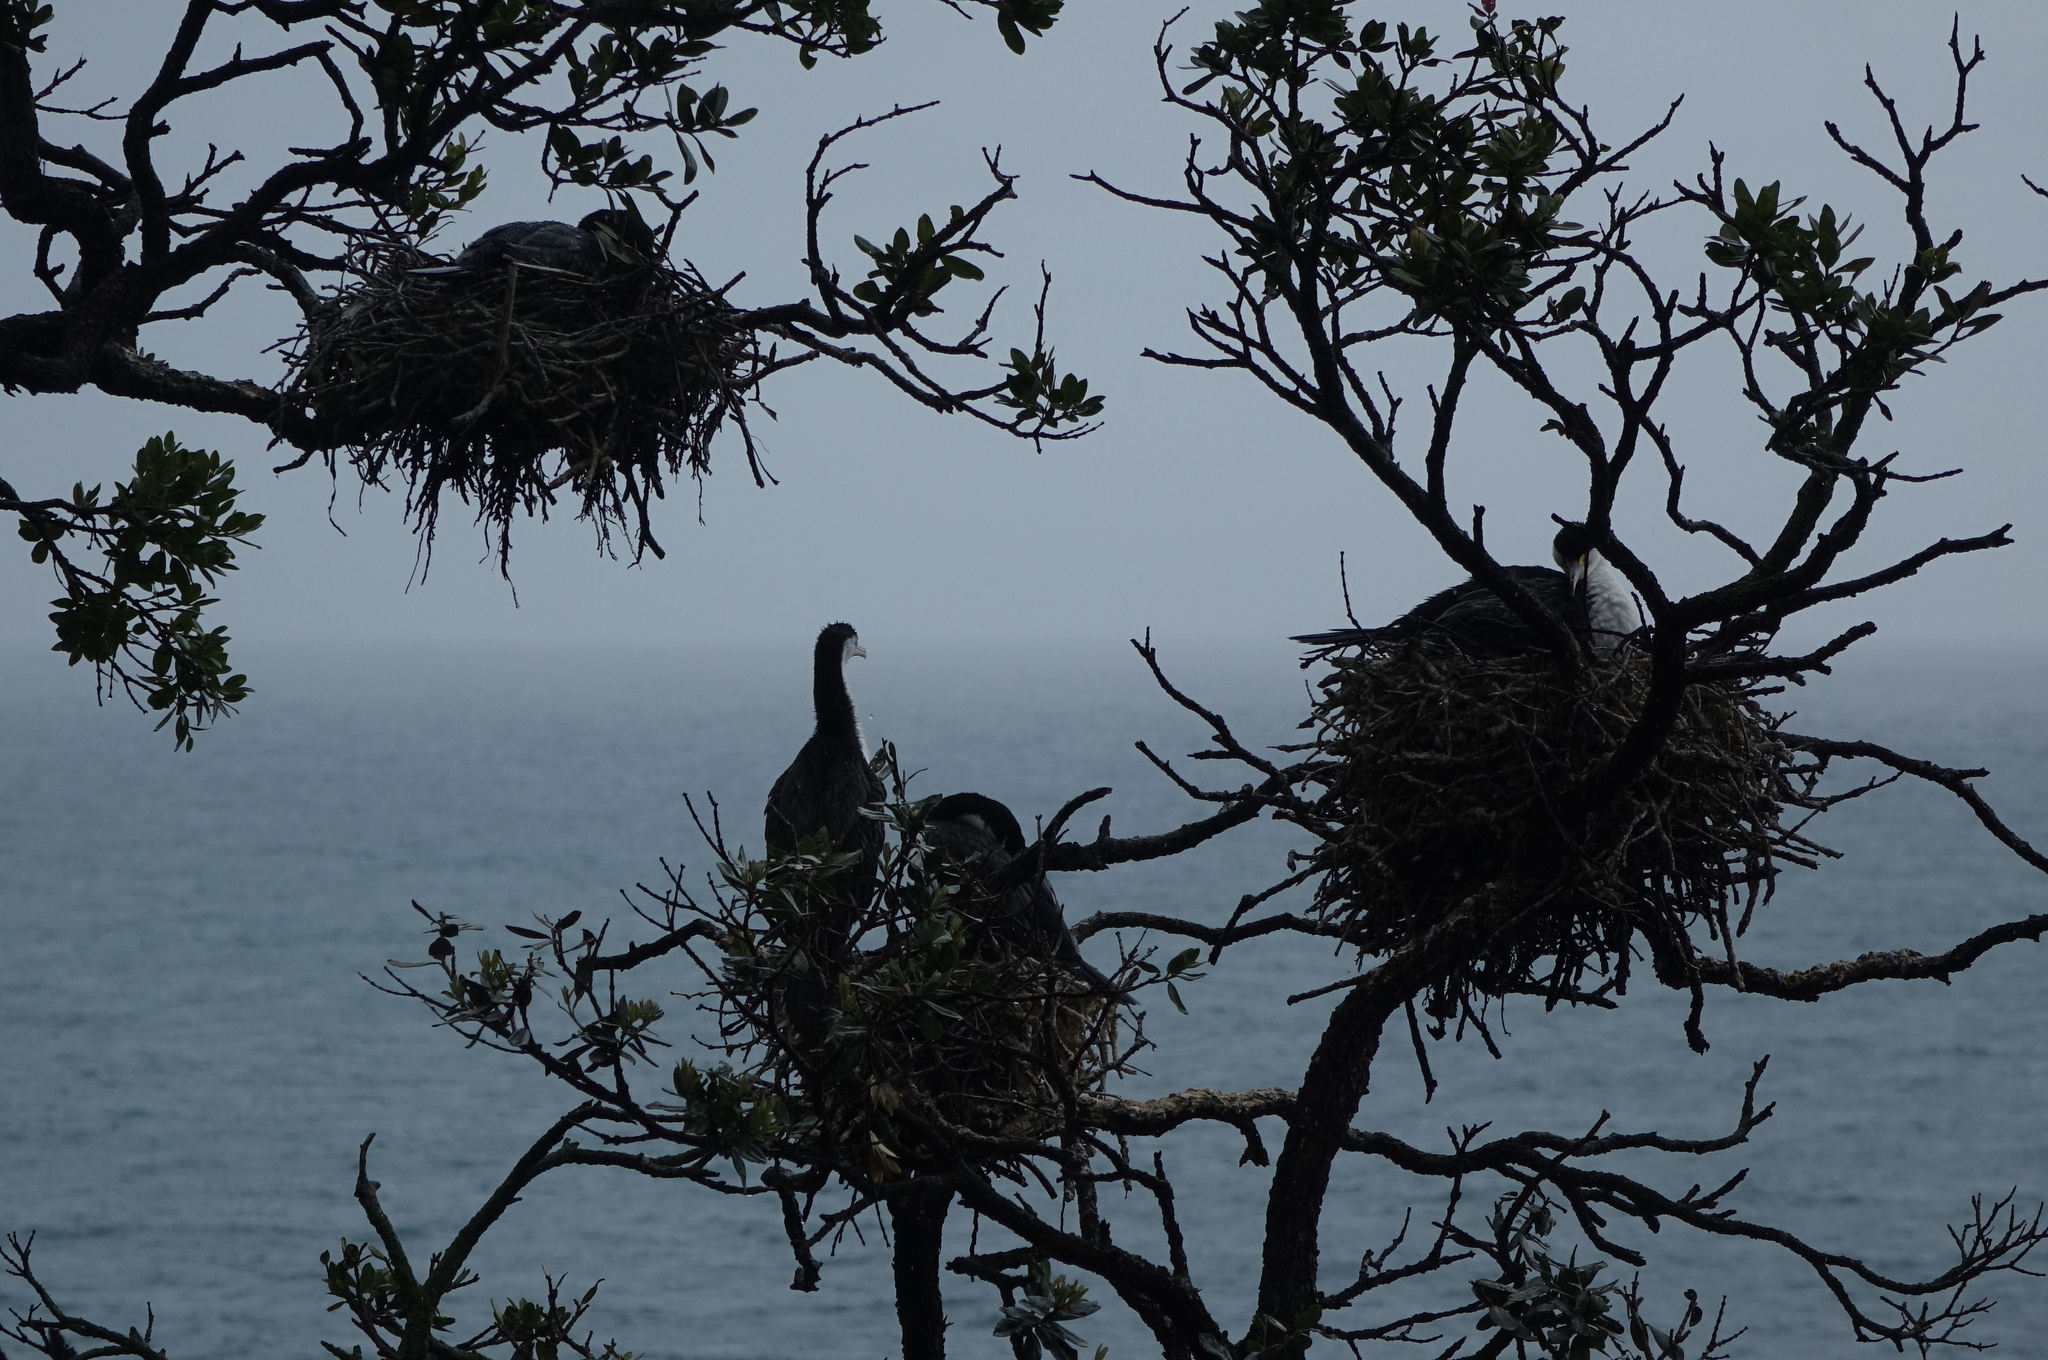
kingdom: Animalia
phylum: Chordata
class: Aves
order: Suliformes
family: Phalacrocoracidae
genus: Phalacrocorax
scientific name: Phalacrocorax varius
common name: Pied cormorant
